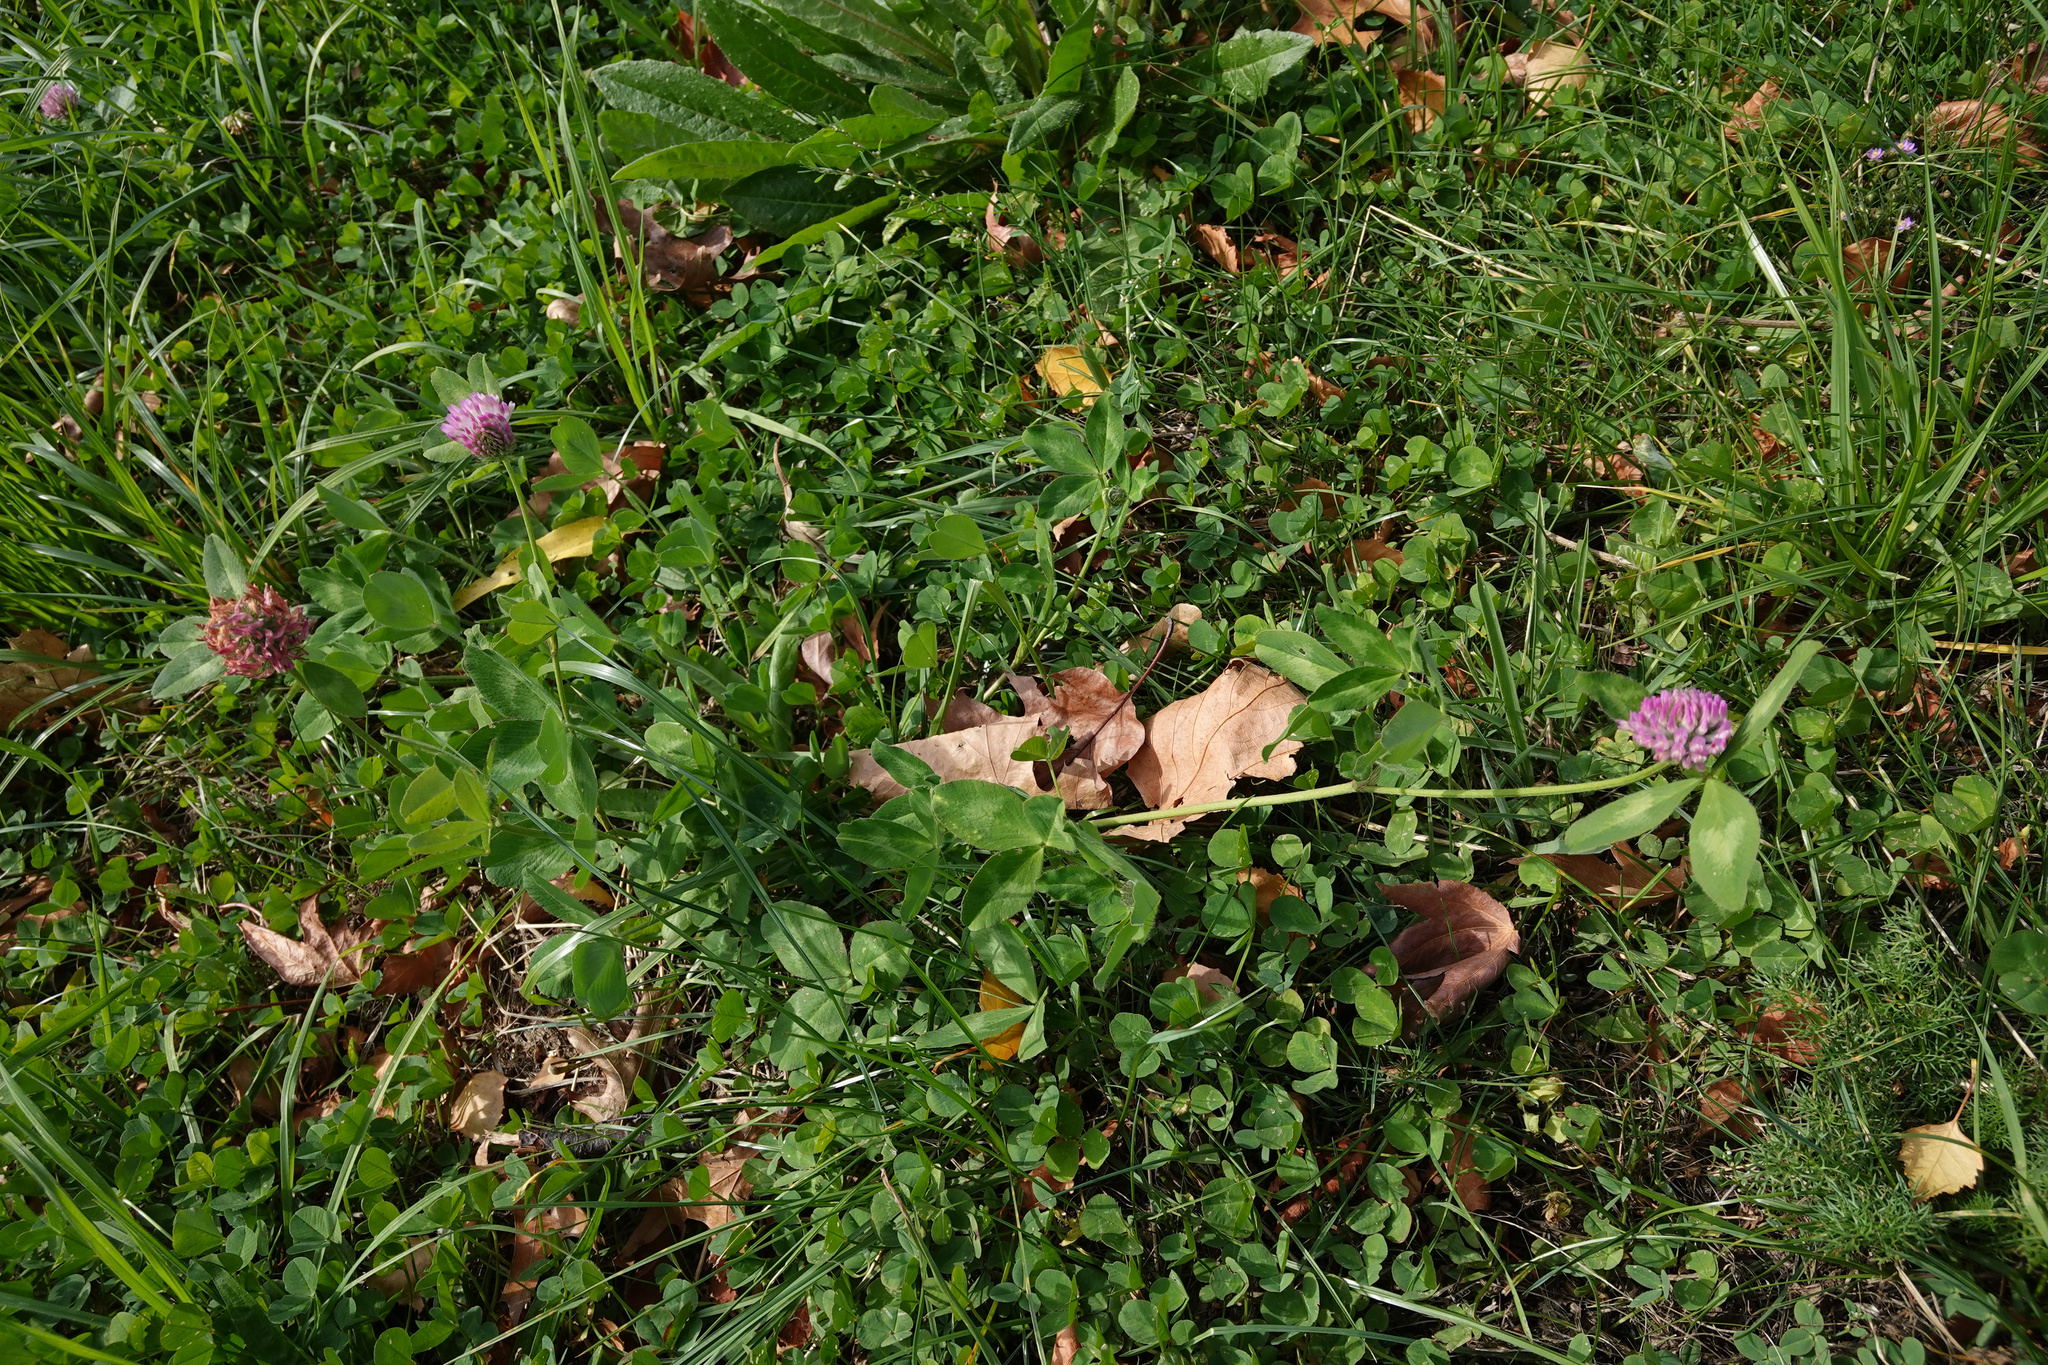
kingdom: Plantae
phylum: Tracheophyta
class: Magnoliopsida
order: Fabales
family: Fabaceae
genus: Trifolium
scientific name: Trifolium pratense
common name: Red clover
